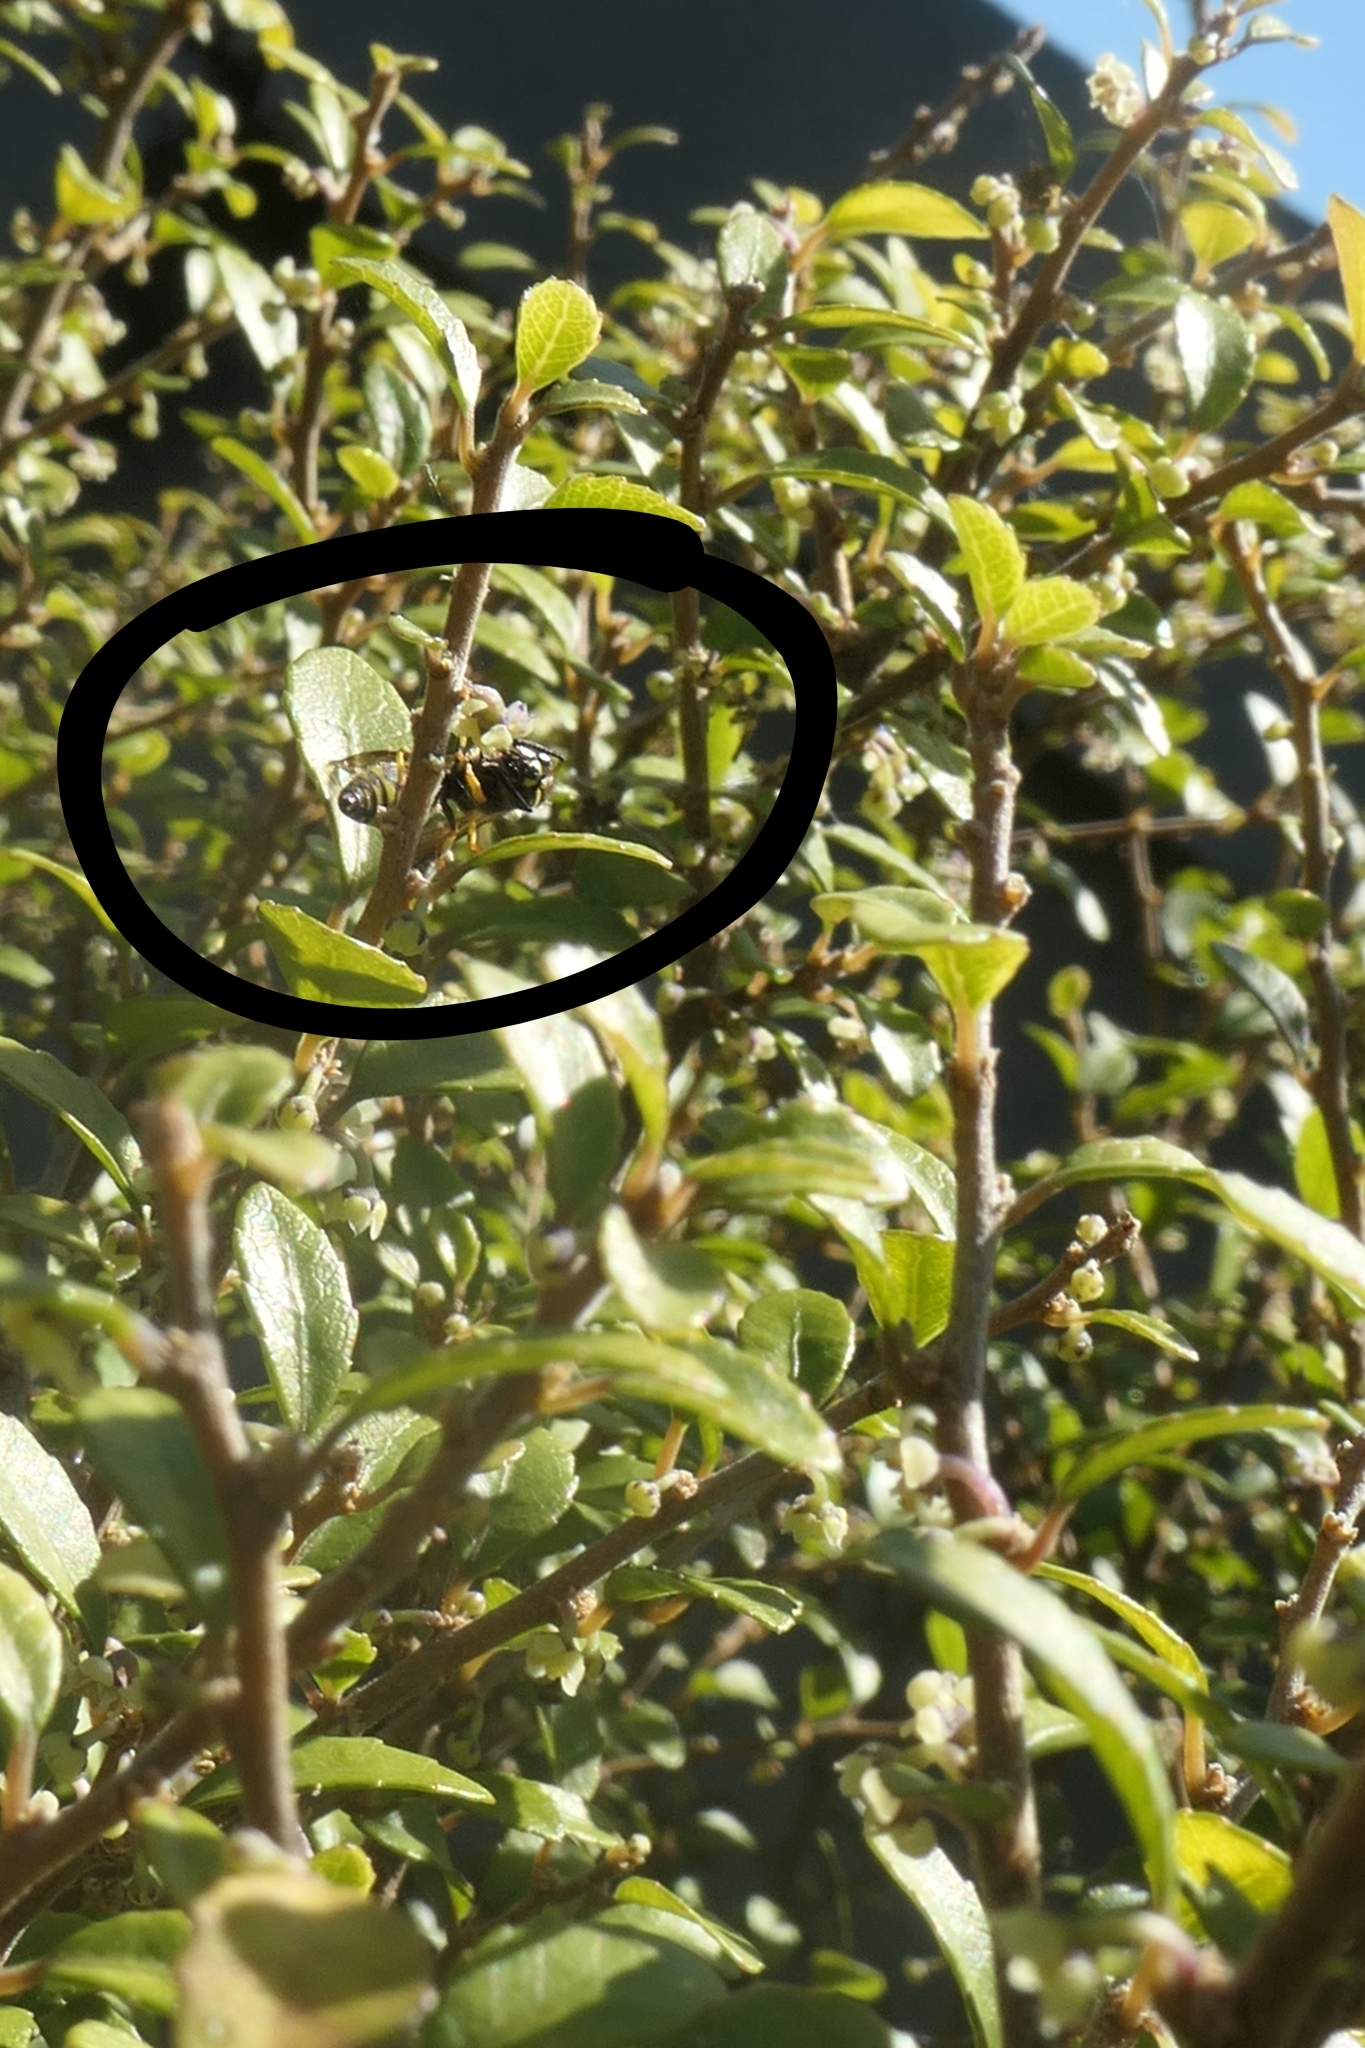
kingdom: Animalia
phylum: Arthropoda
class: Insecta
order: Hymenoptera
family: Vespidae
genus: Ancistrocerus
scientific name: Ancistrocerus gazella
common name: European tube wasp
